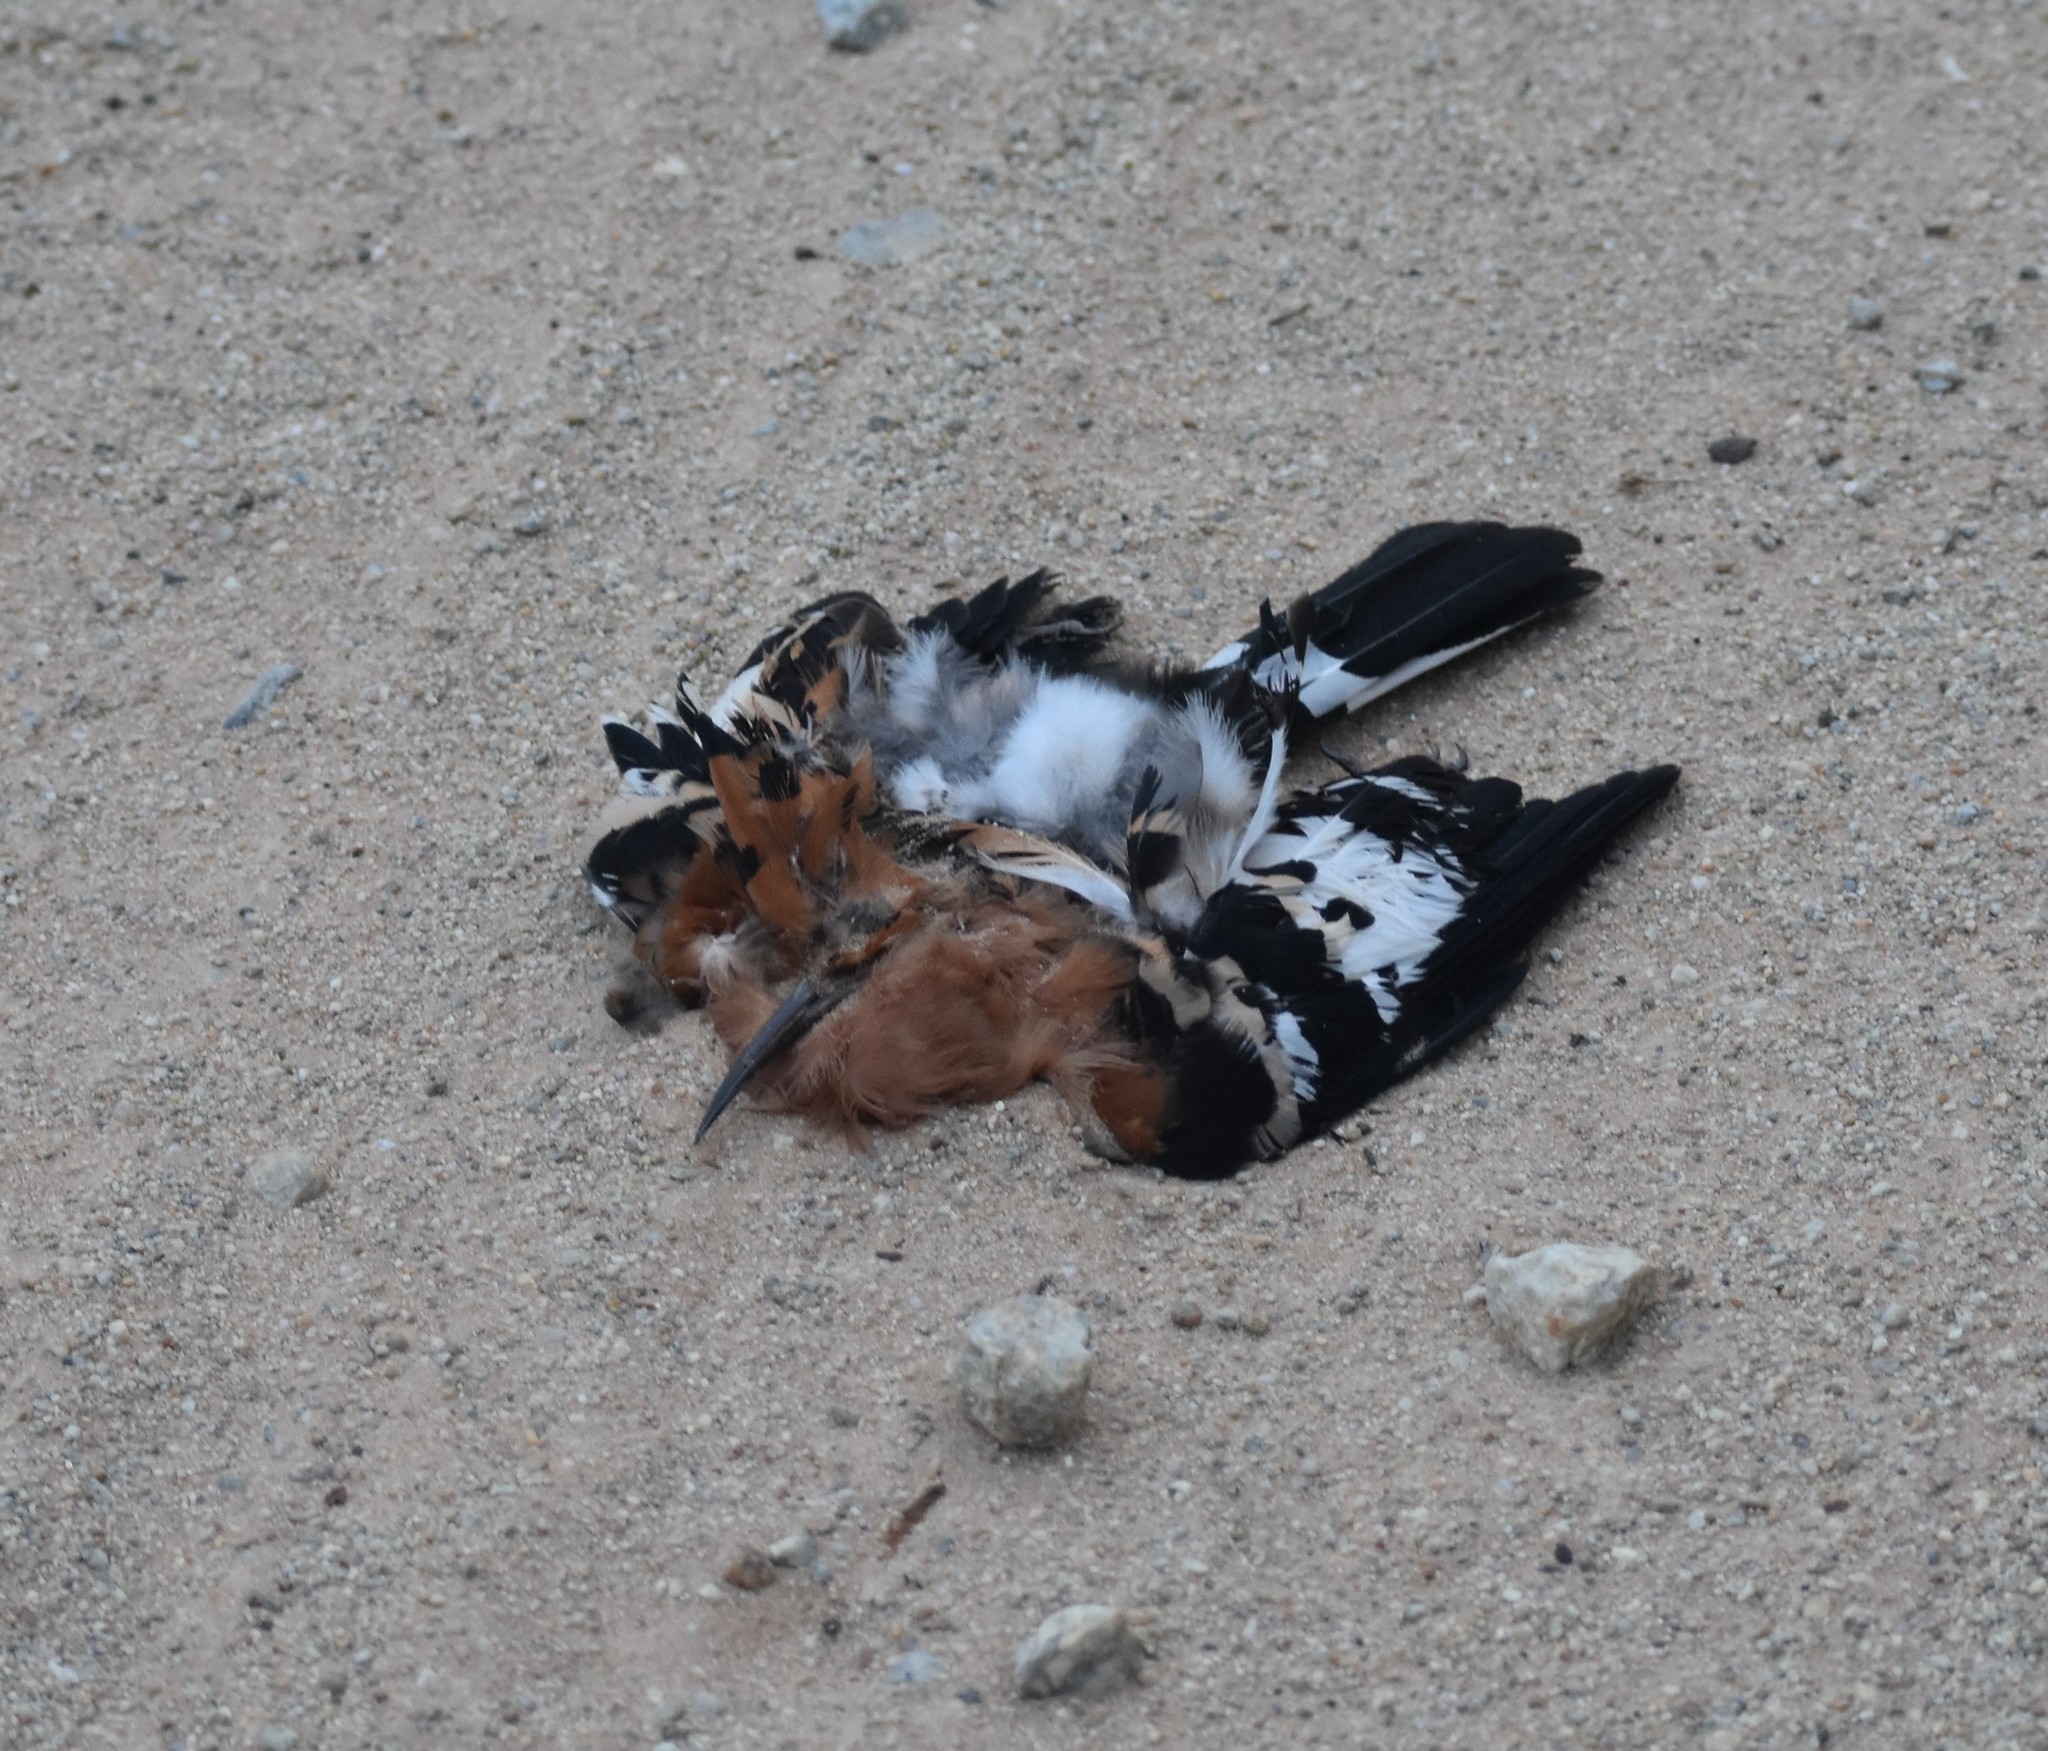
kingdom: Animalia
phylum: Chordata
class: Aves
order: Bucerotiformes
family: Upupidae
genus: Upupa
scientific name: Upupa africana
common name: African hoopoe
